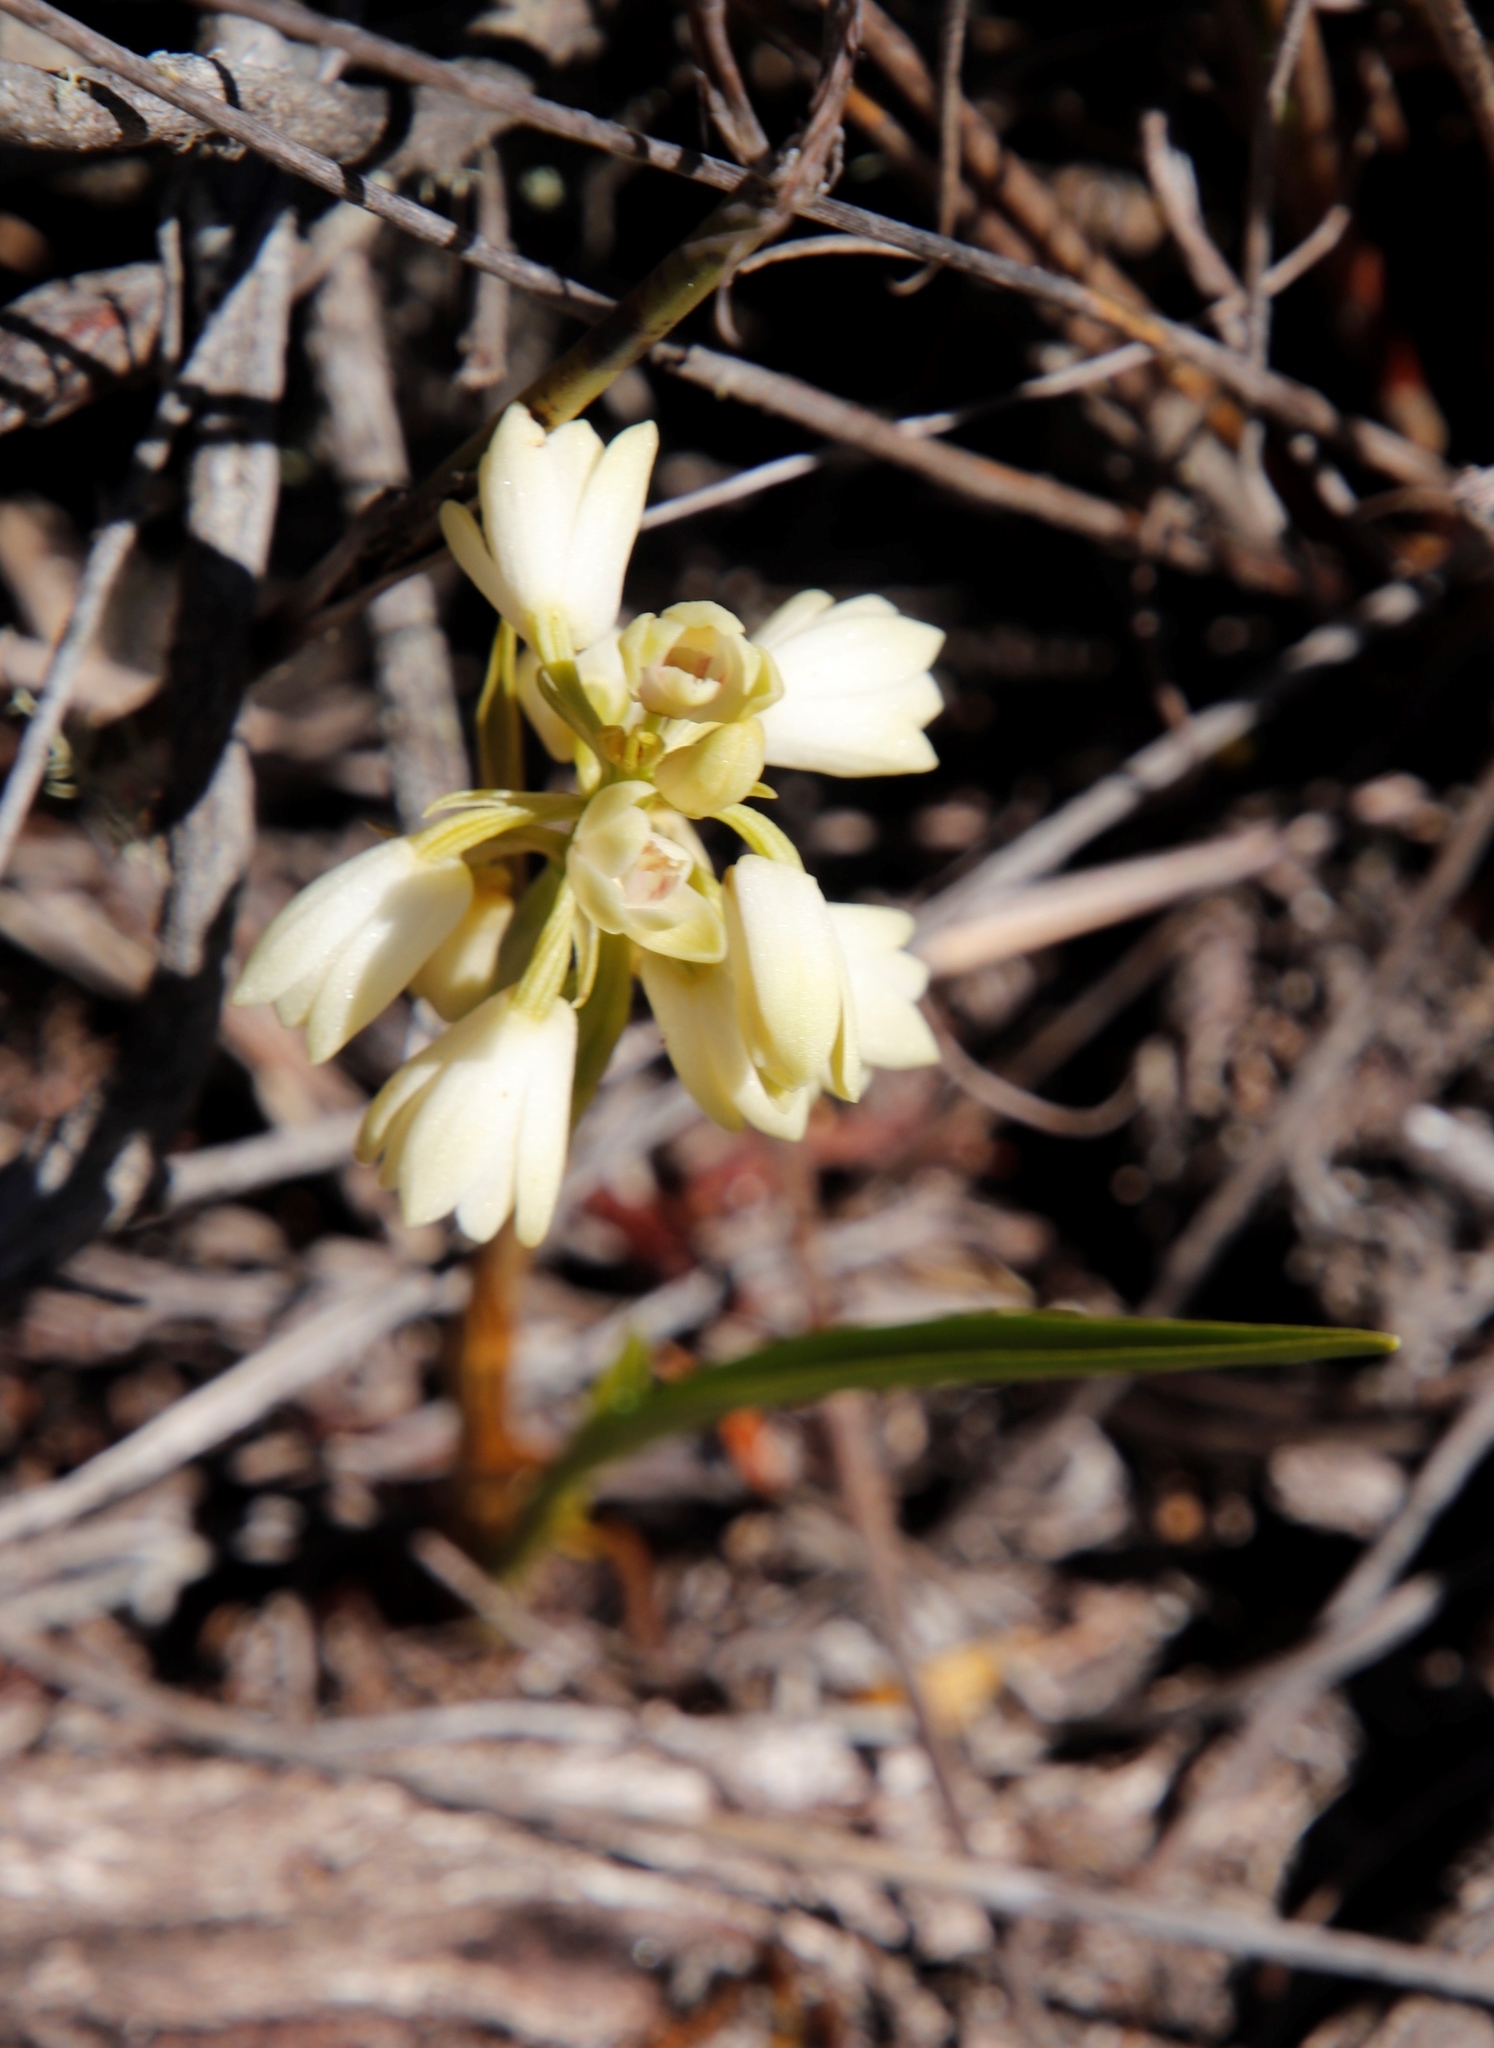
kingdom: Plantae
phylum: Tracheophyta
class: Liliopsida
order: Asparagales
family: Orchidaceae
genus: Eulophia
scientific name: Eulophia aculeata
